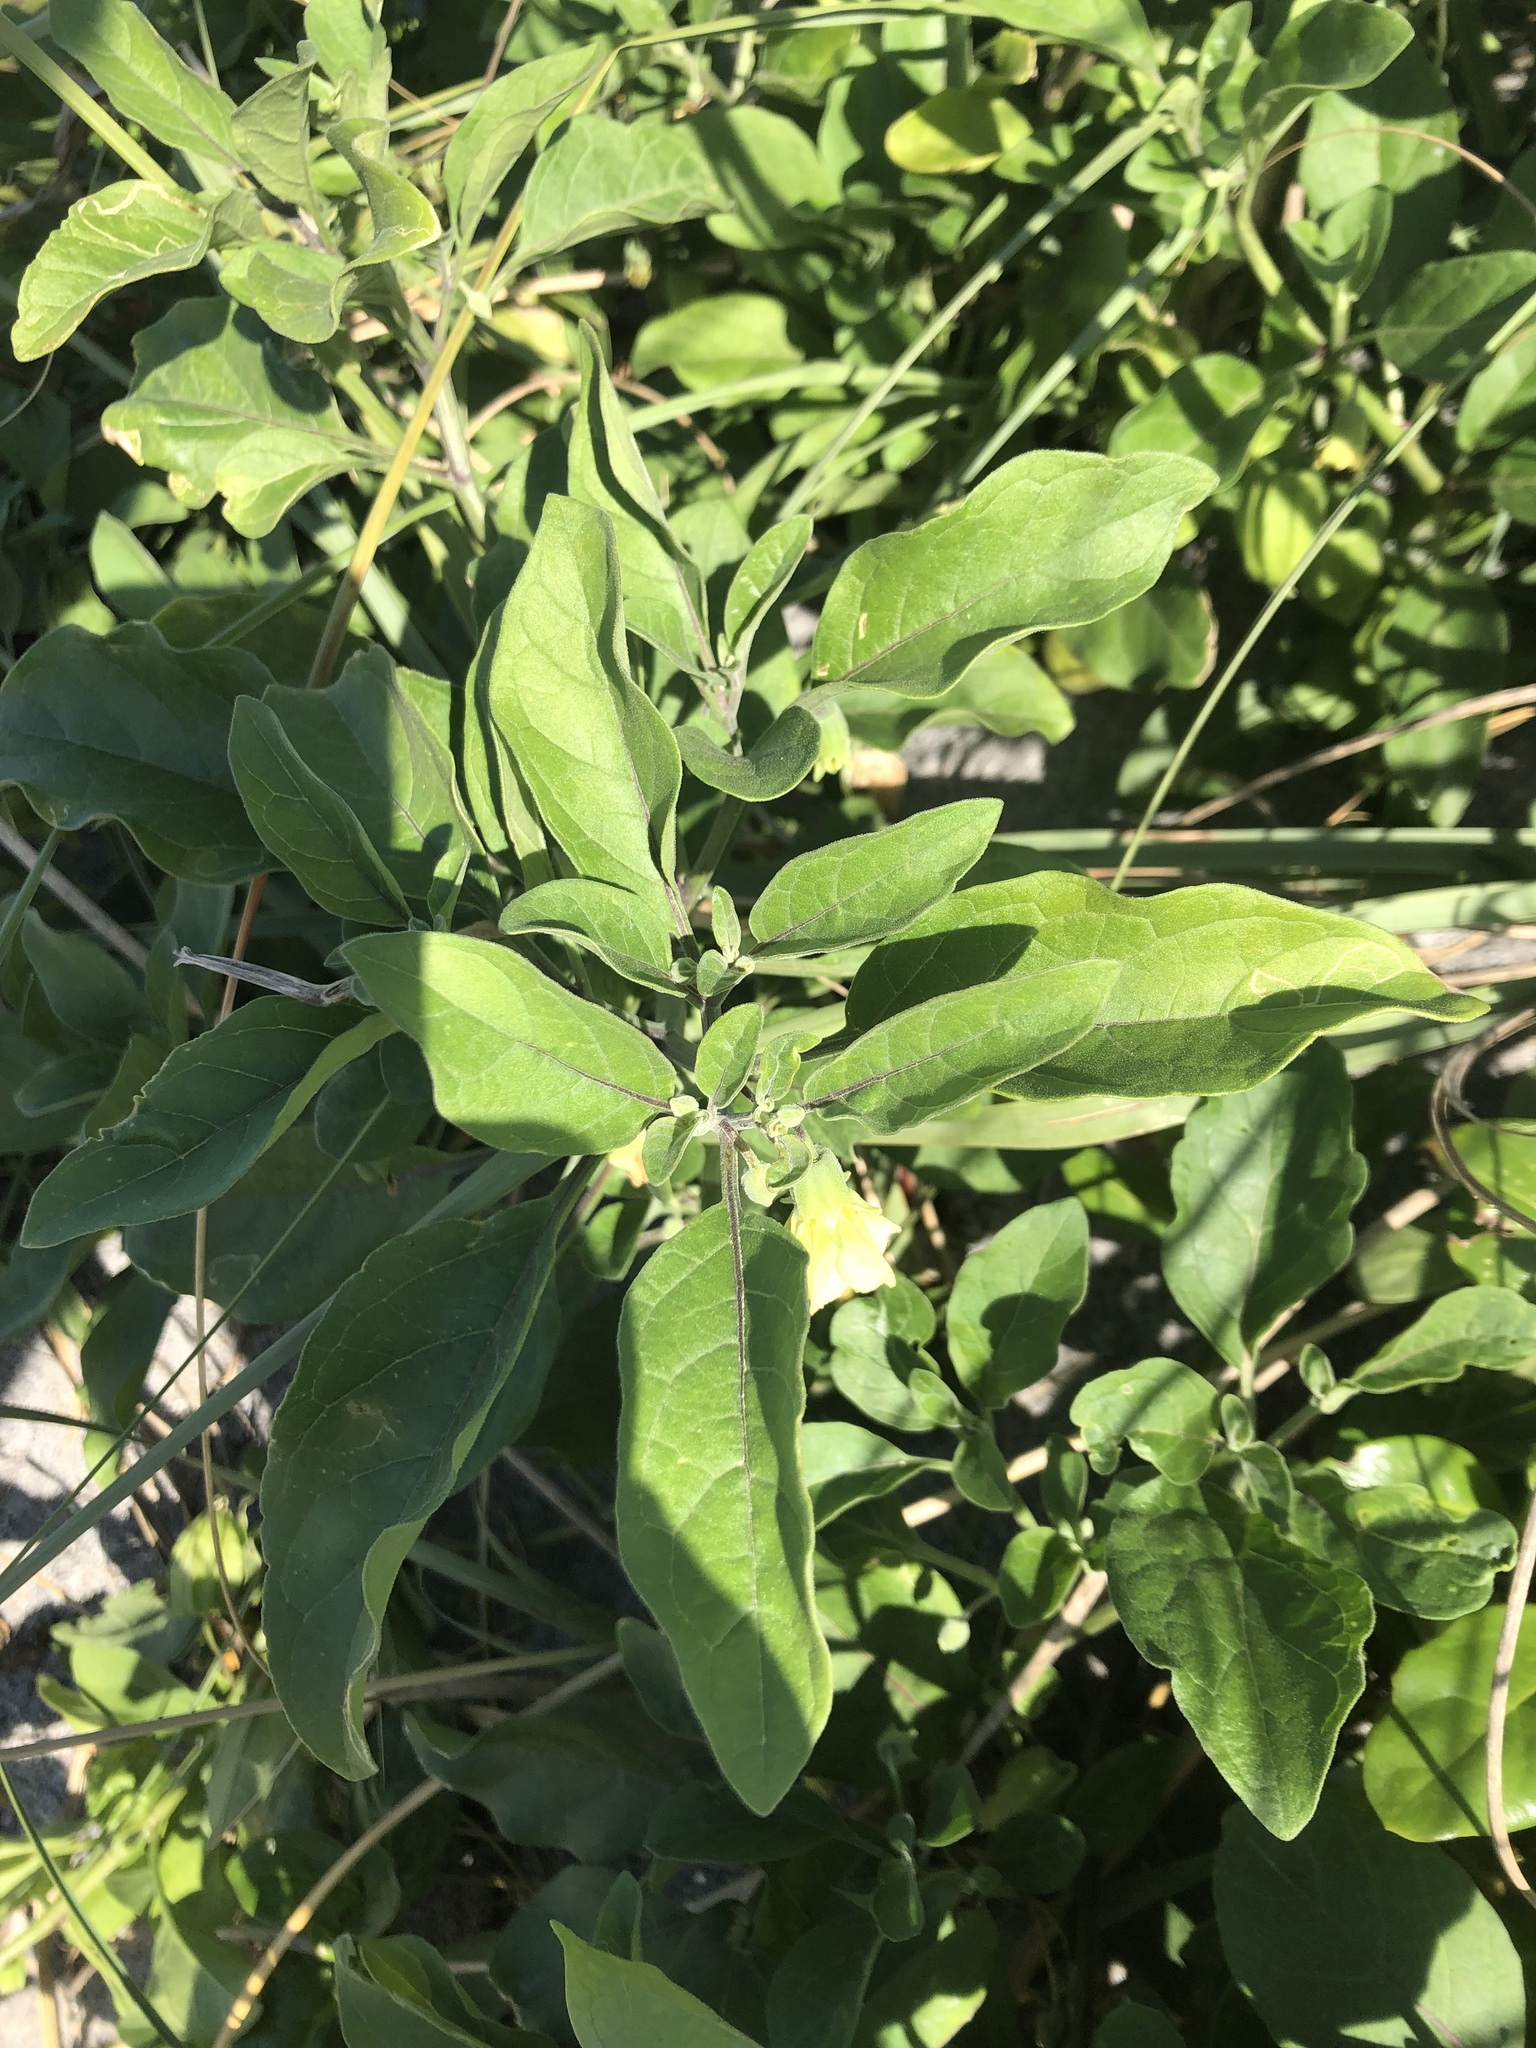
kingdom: Plantae
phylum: Tracheophyta
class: Magnoliopsida
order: Solanales
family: Solanaceae
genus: Physalis
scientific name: Physalis walteri
